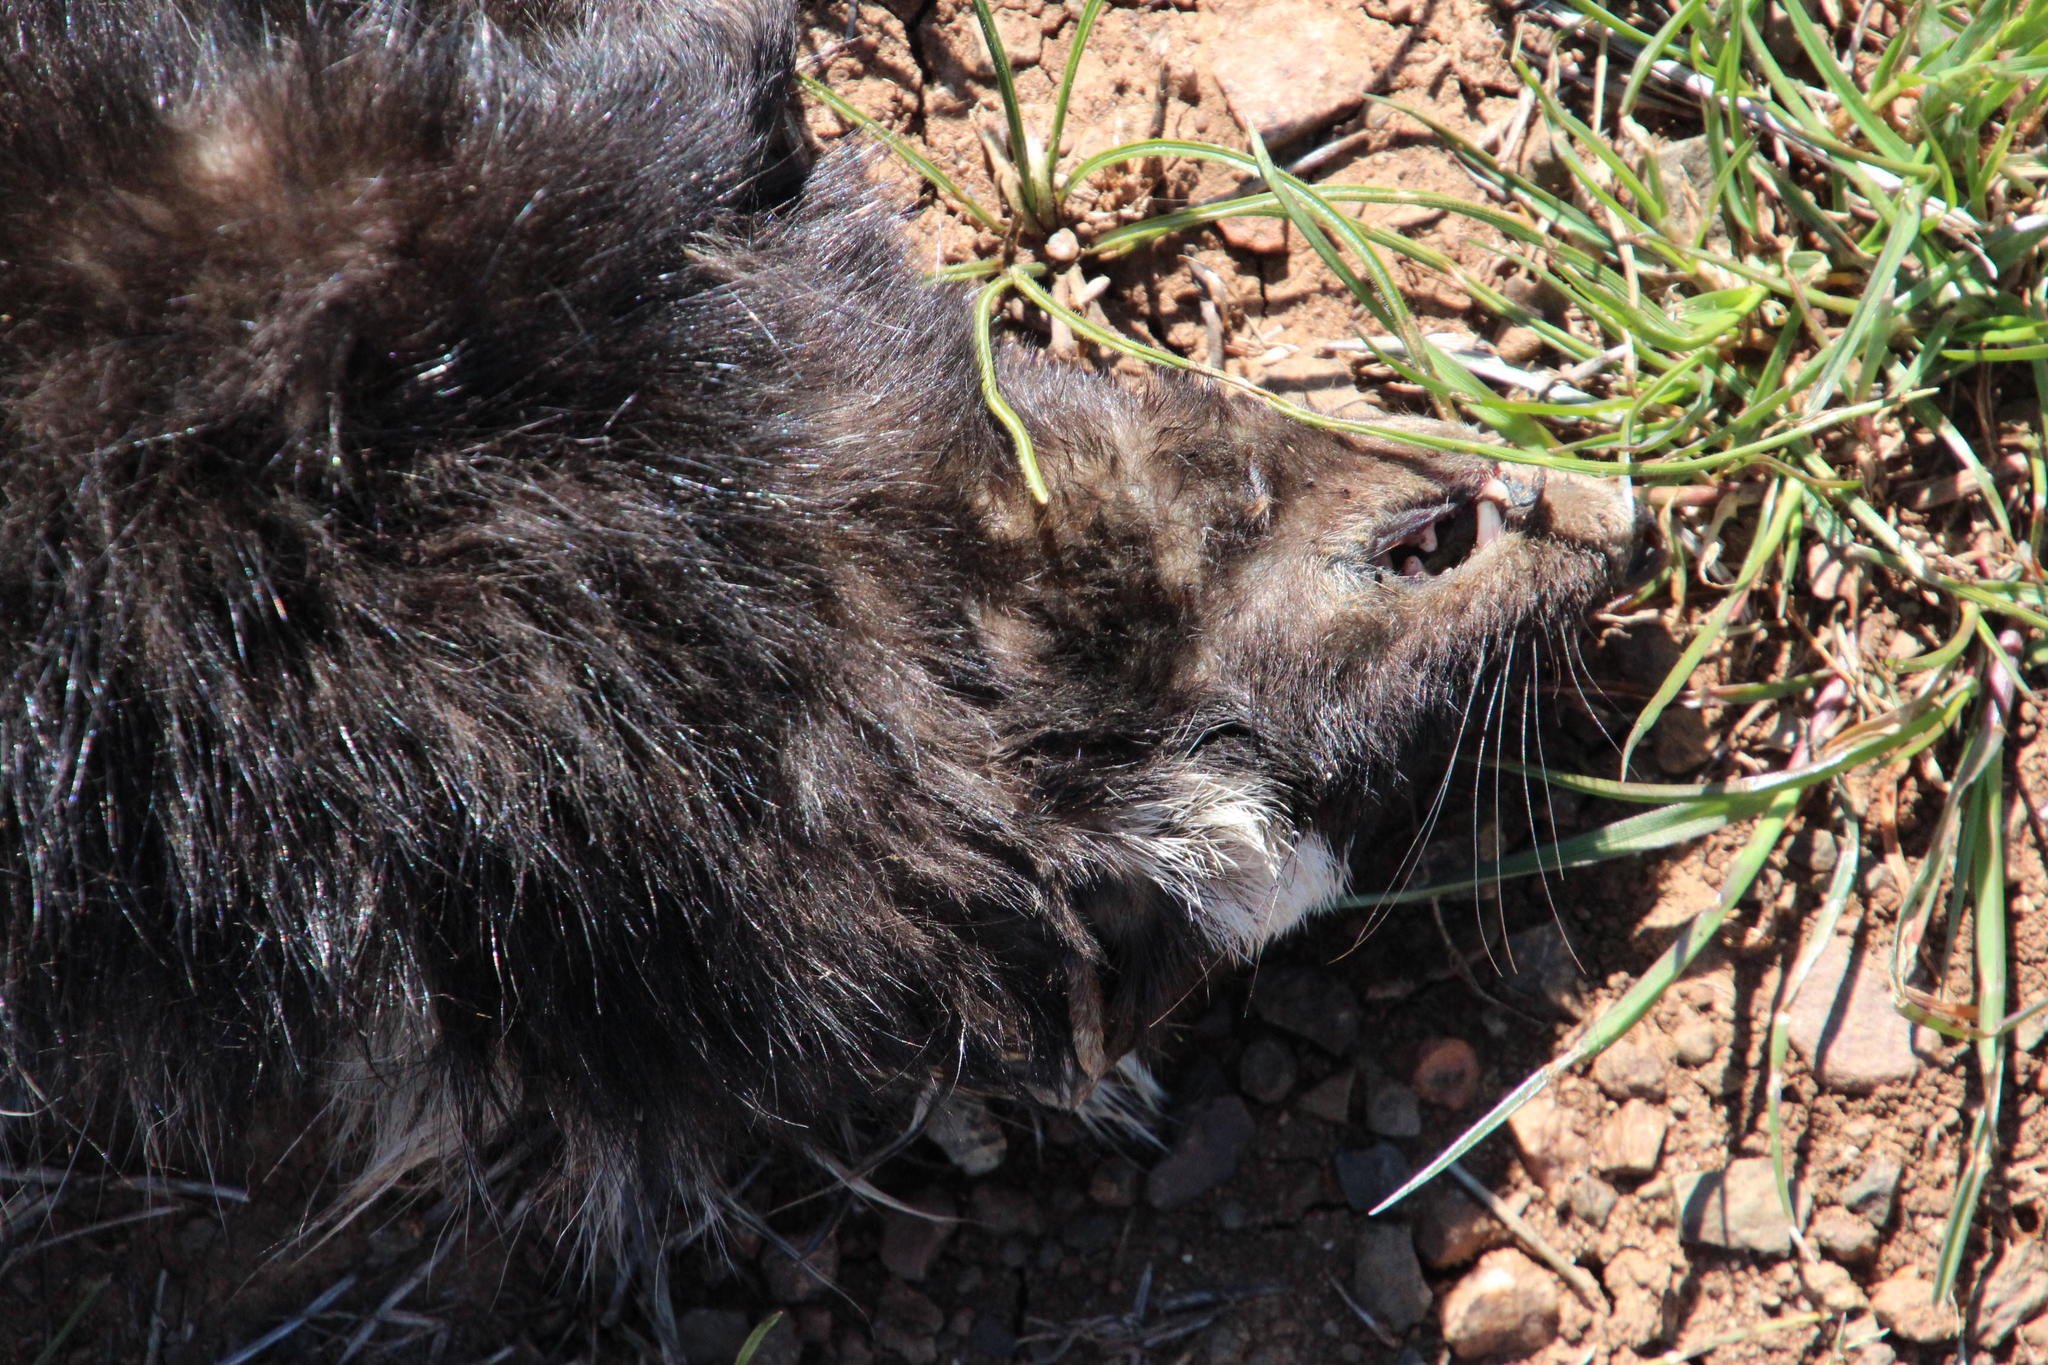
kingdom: Animalia
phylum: Chordata
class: Mammalia
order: Carnivora
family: Mustelidae
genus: Ictonyx
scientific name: Ictonyx striatus
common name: Striped polecat
